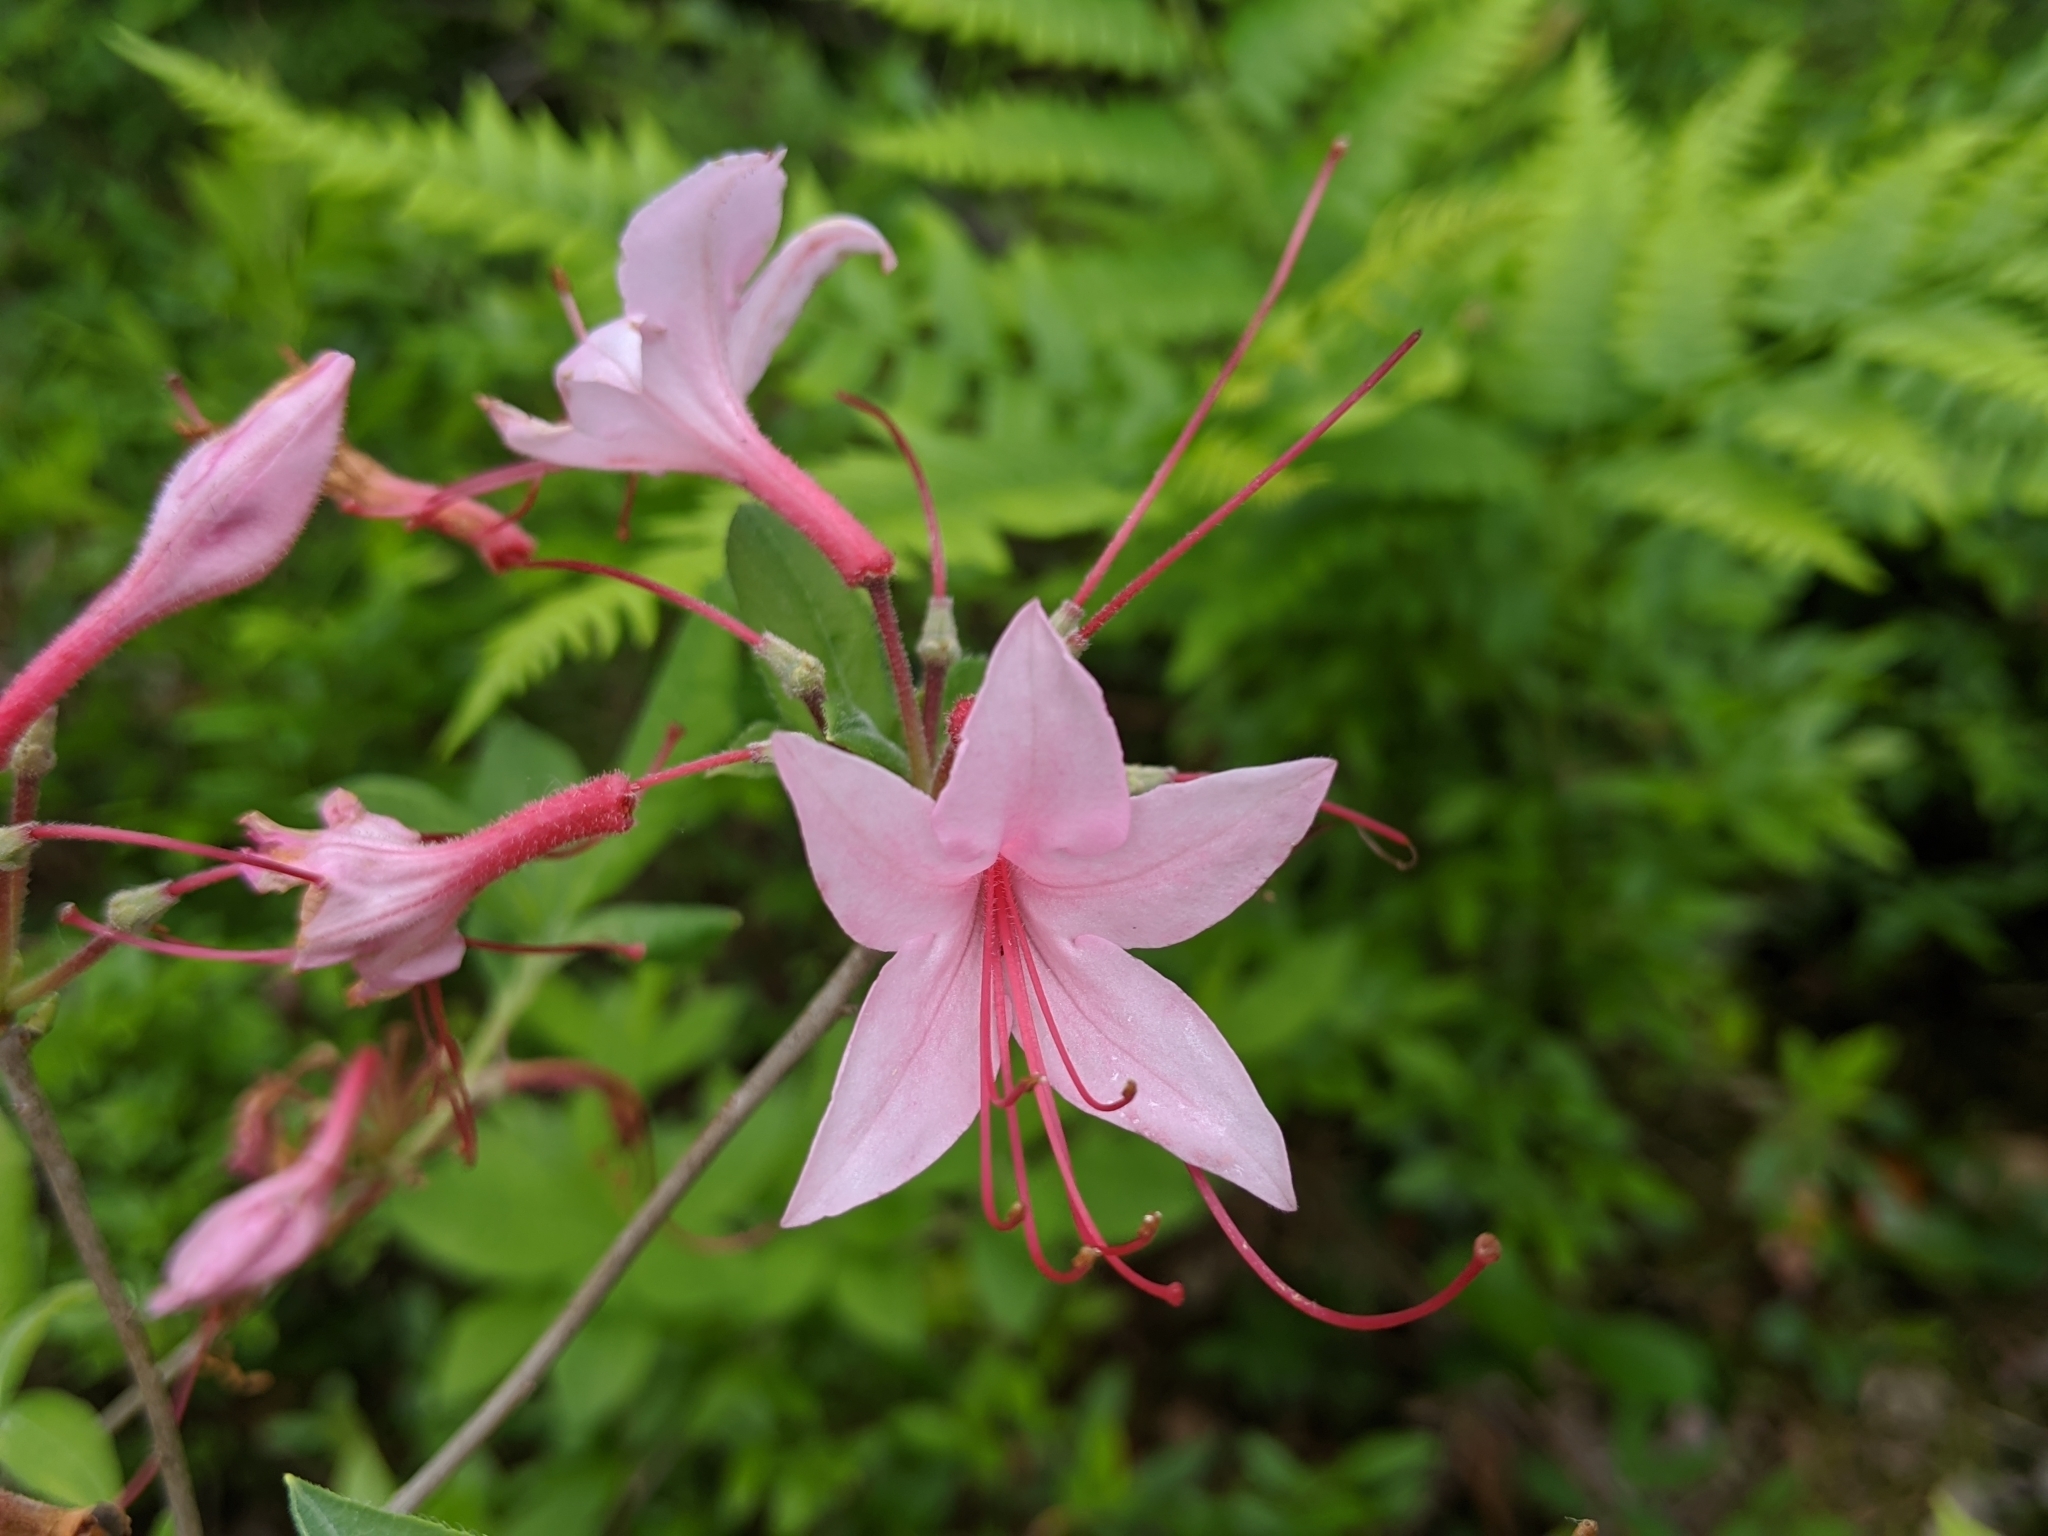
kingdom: Plantae
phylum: Tracheophyta
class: Magnoliopsida
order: Ericales
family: Ericaceae
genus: Rhododendron
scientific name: Rhododendron roseum
